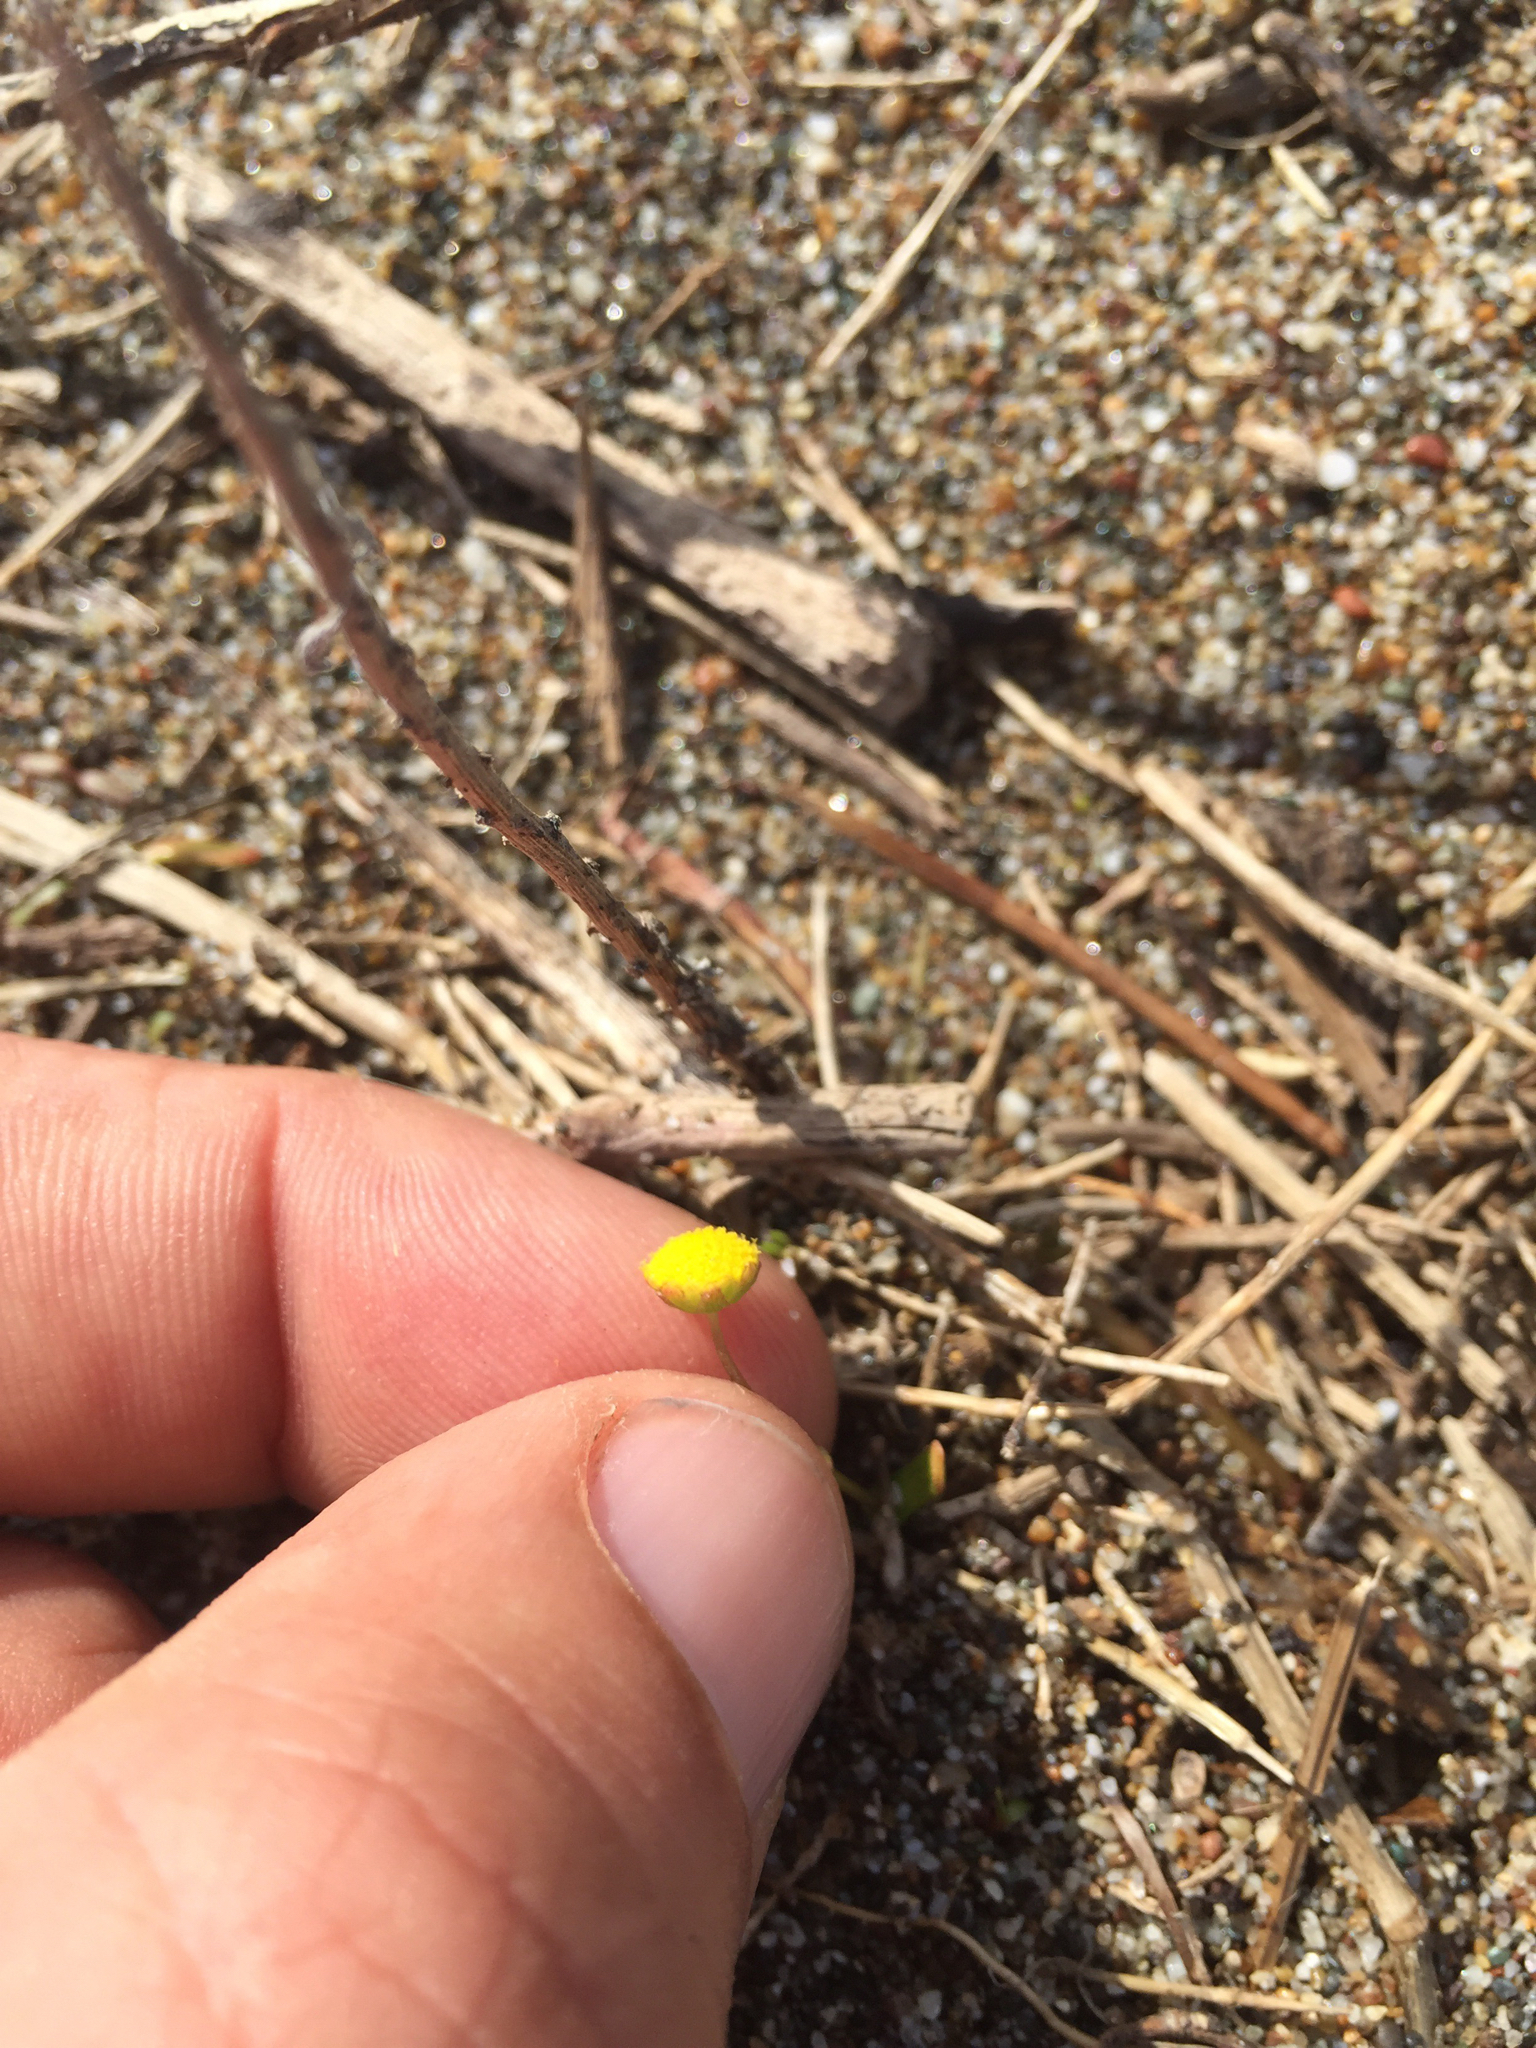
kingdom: Plantae
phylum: Tracheophyta
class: Magnoliopsida
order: Asterales
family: Asteraceae
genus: Cotula
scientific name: Cotula coronopifolia
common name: Buttonweed
